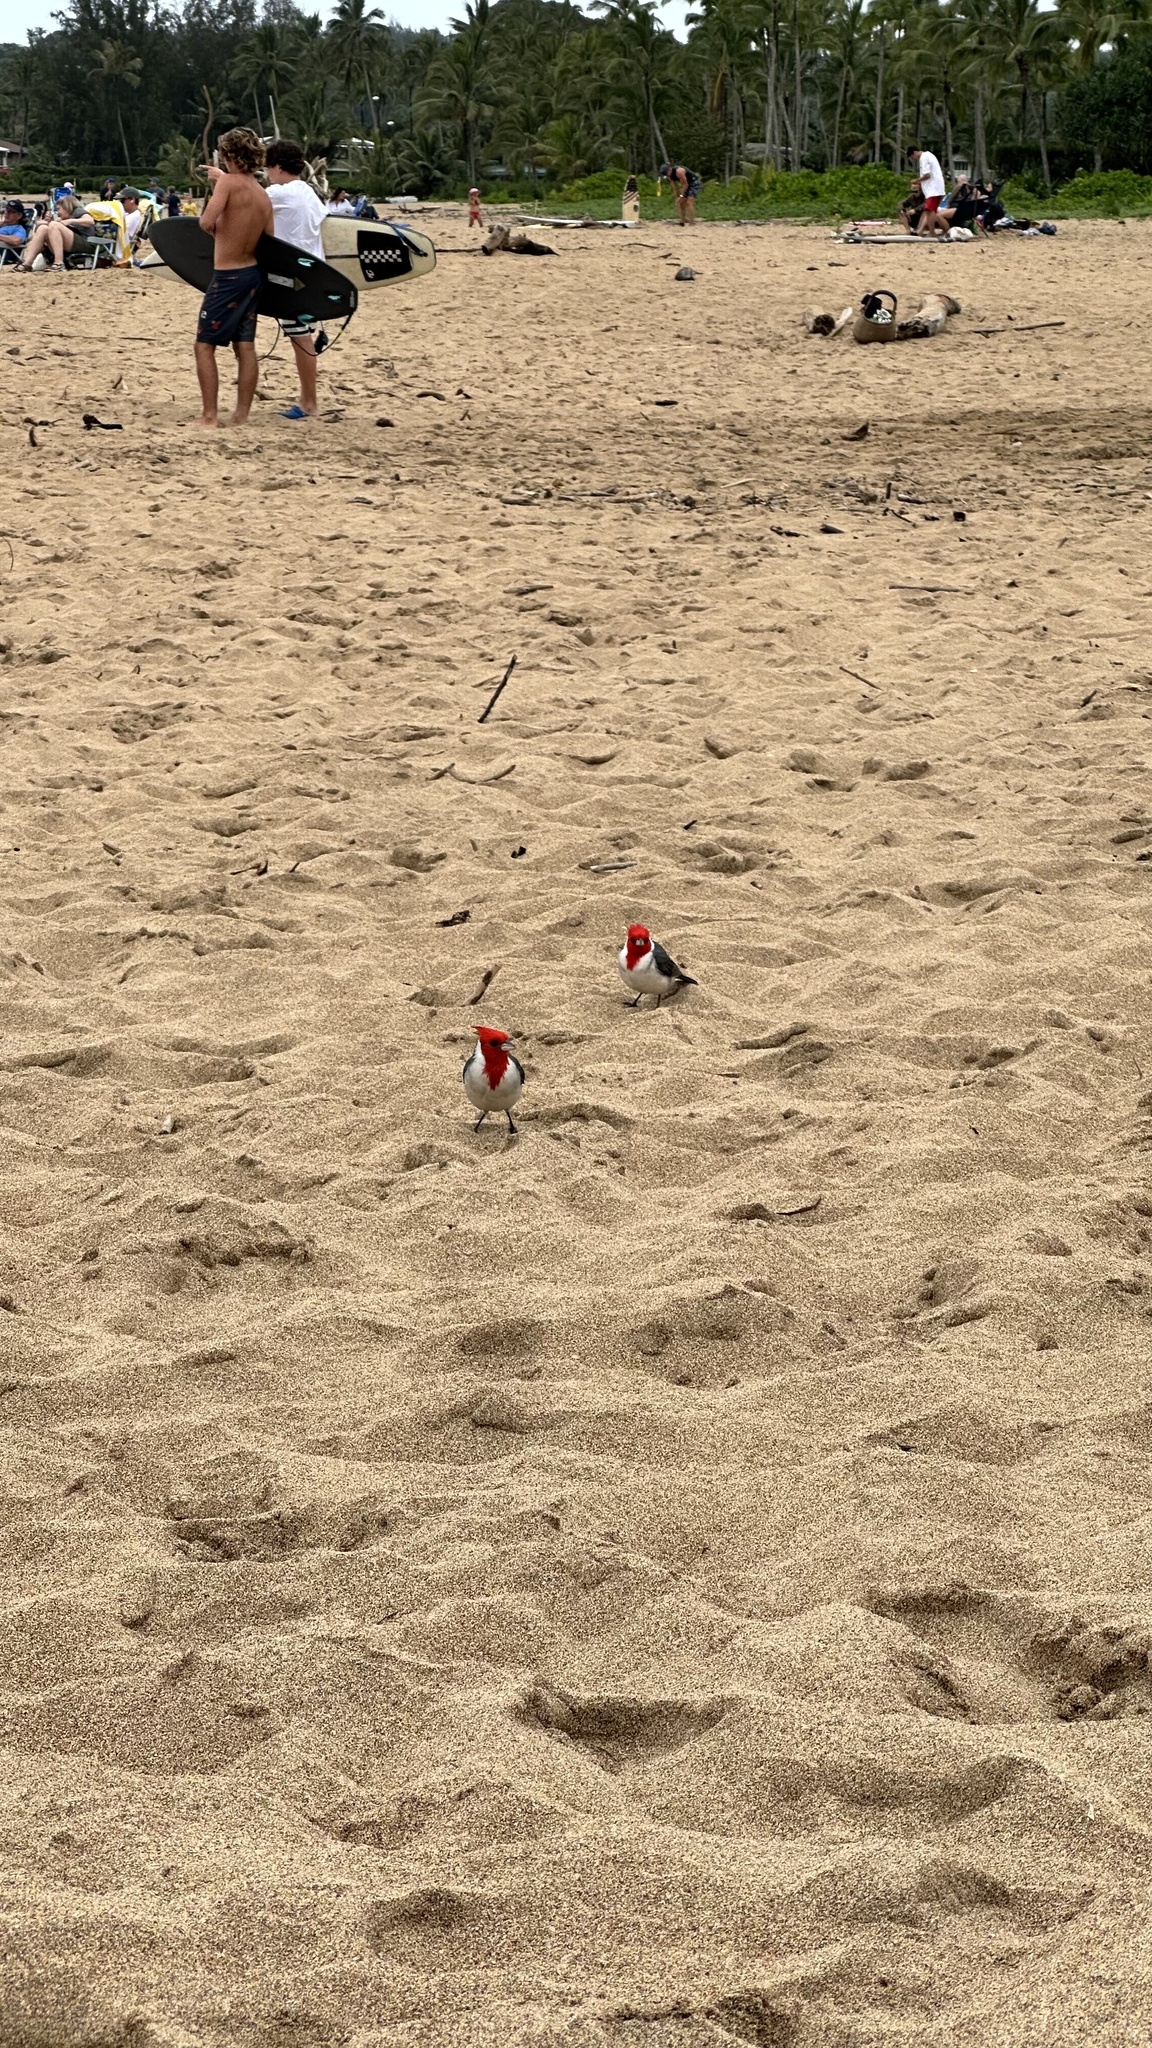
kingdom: Animalia
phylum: Chordata
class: Aves
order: Passeriformes
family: Thraupidae
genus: Paroaria
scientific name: Paroaria coronata
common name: Red-crested cardinal
